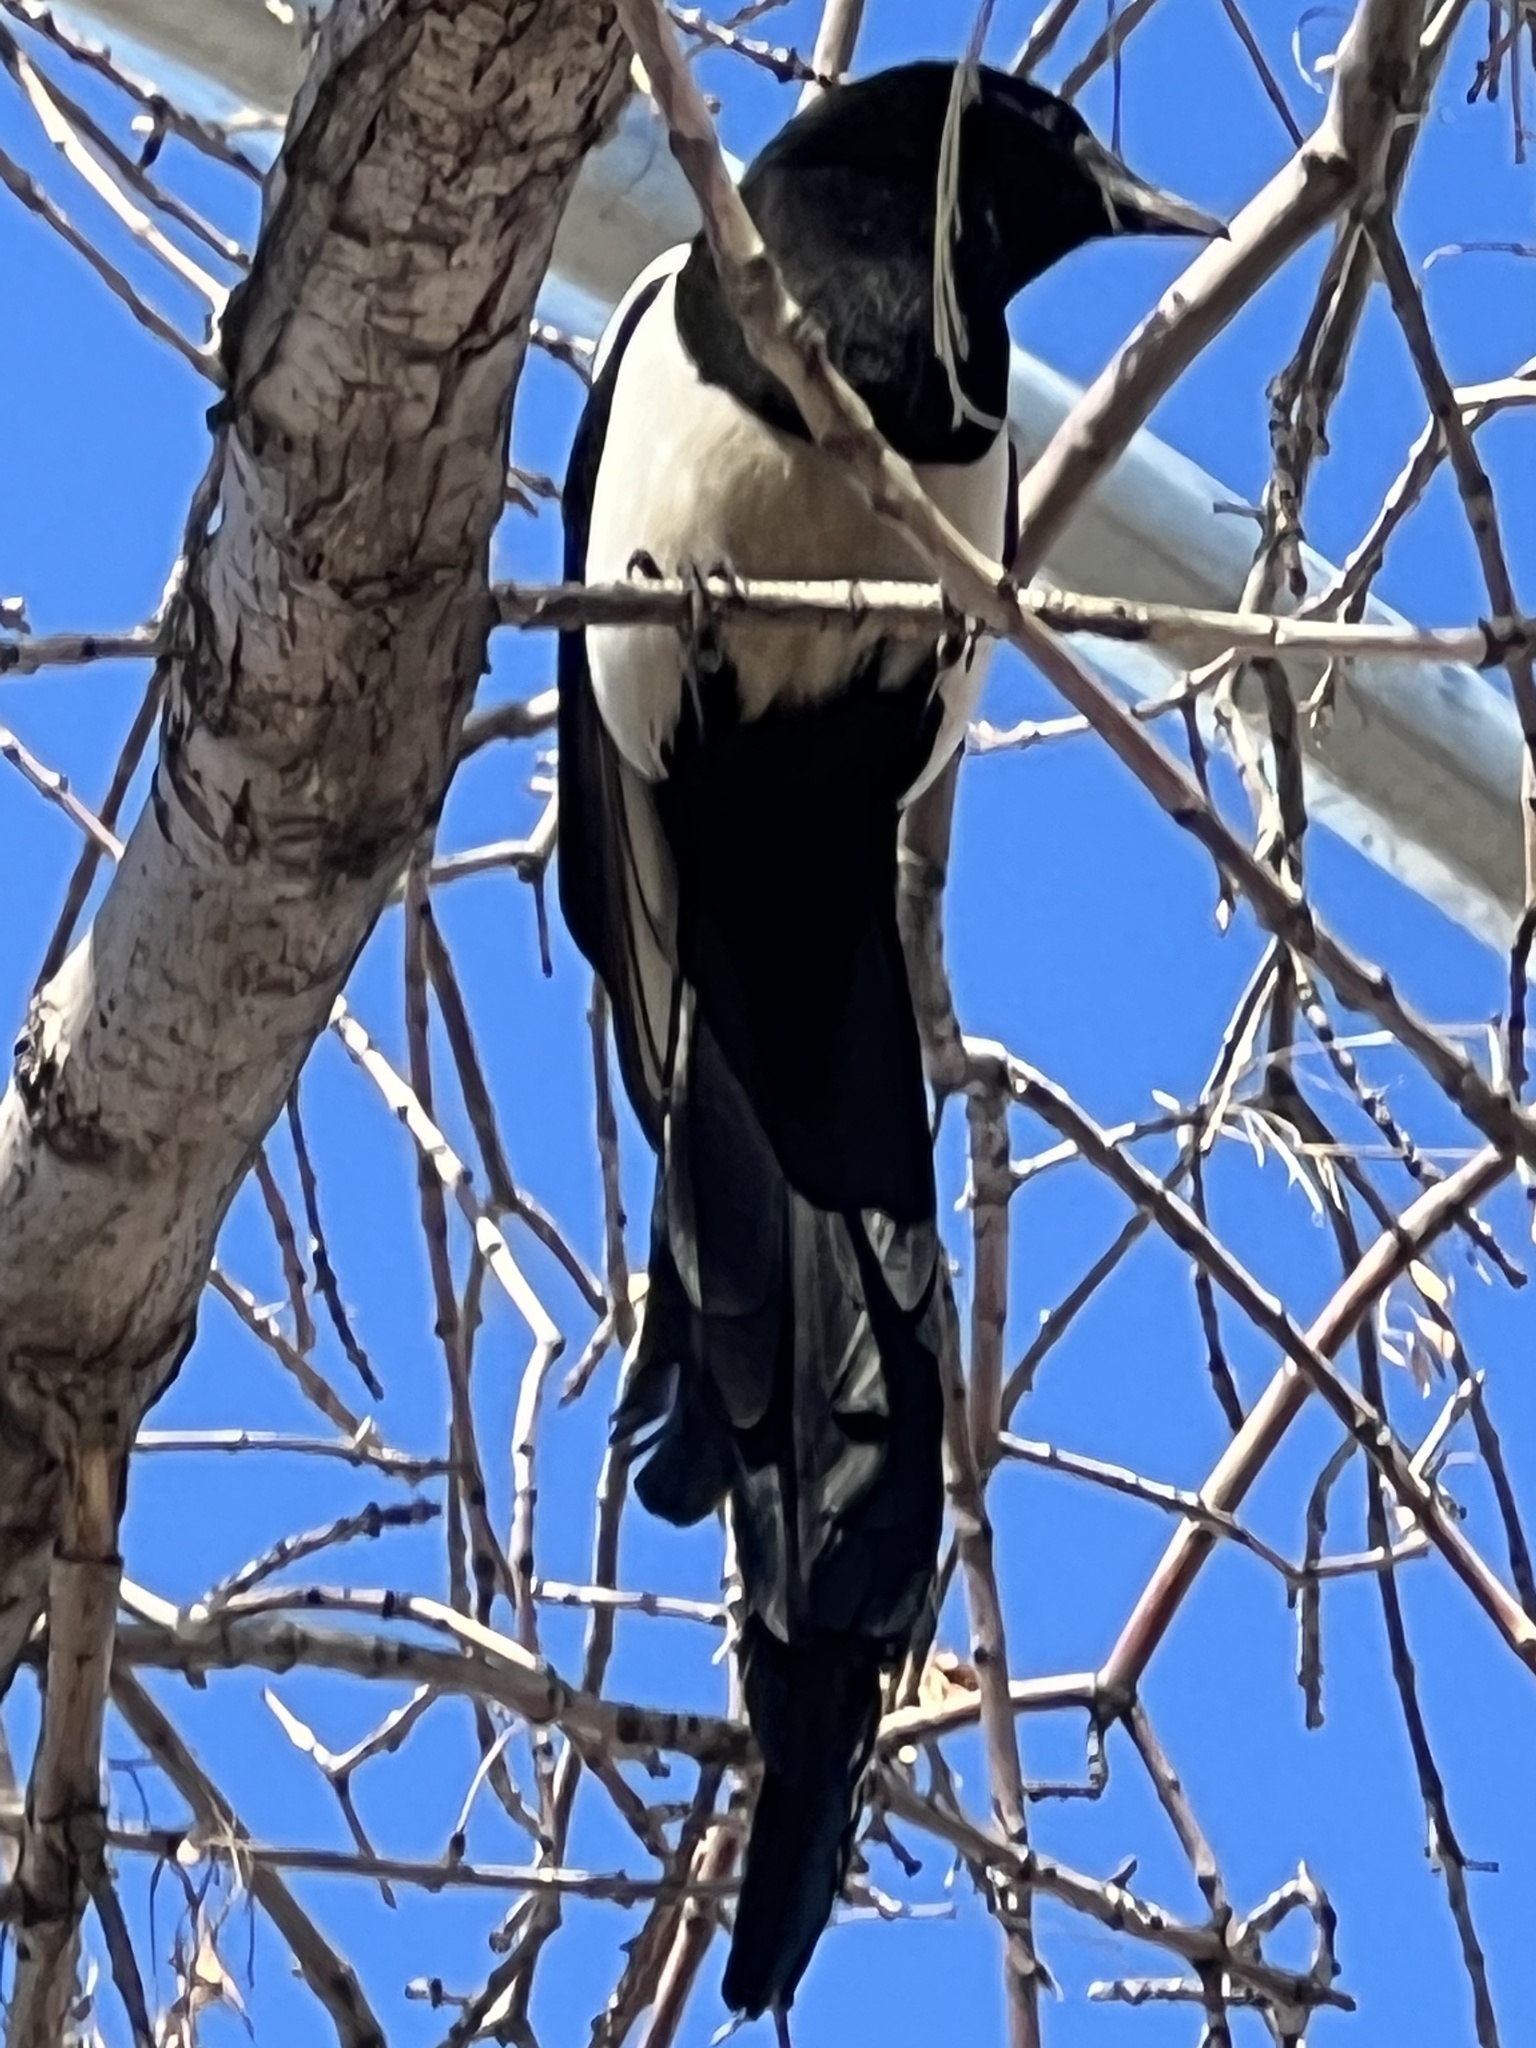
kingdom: Animalia
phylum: Chordata
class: Aves
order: Passeriformes
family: Corvidae
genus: Pica
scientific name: Pica hudsonia
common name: Black-billed magpie
